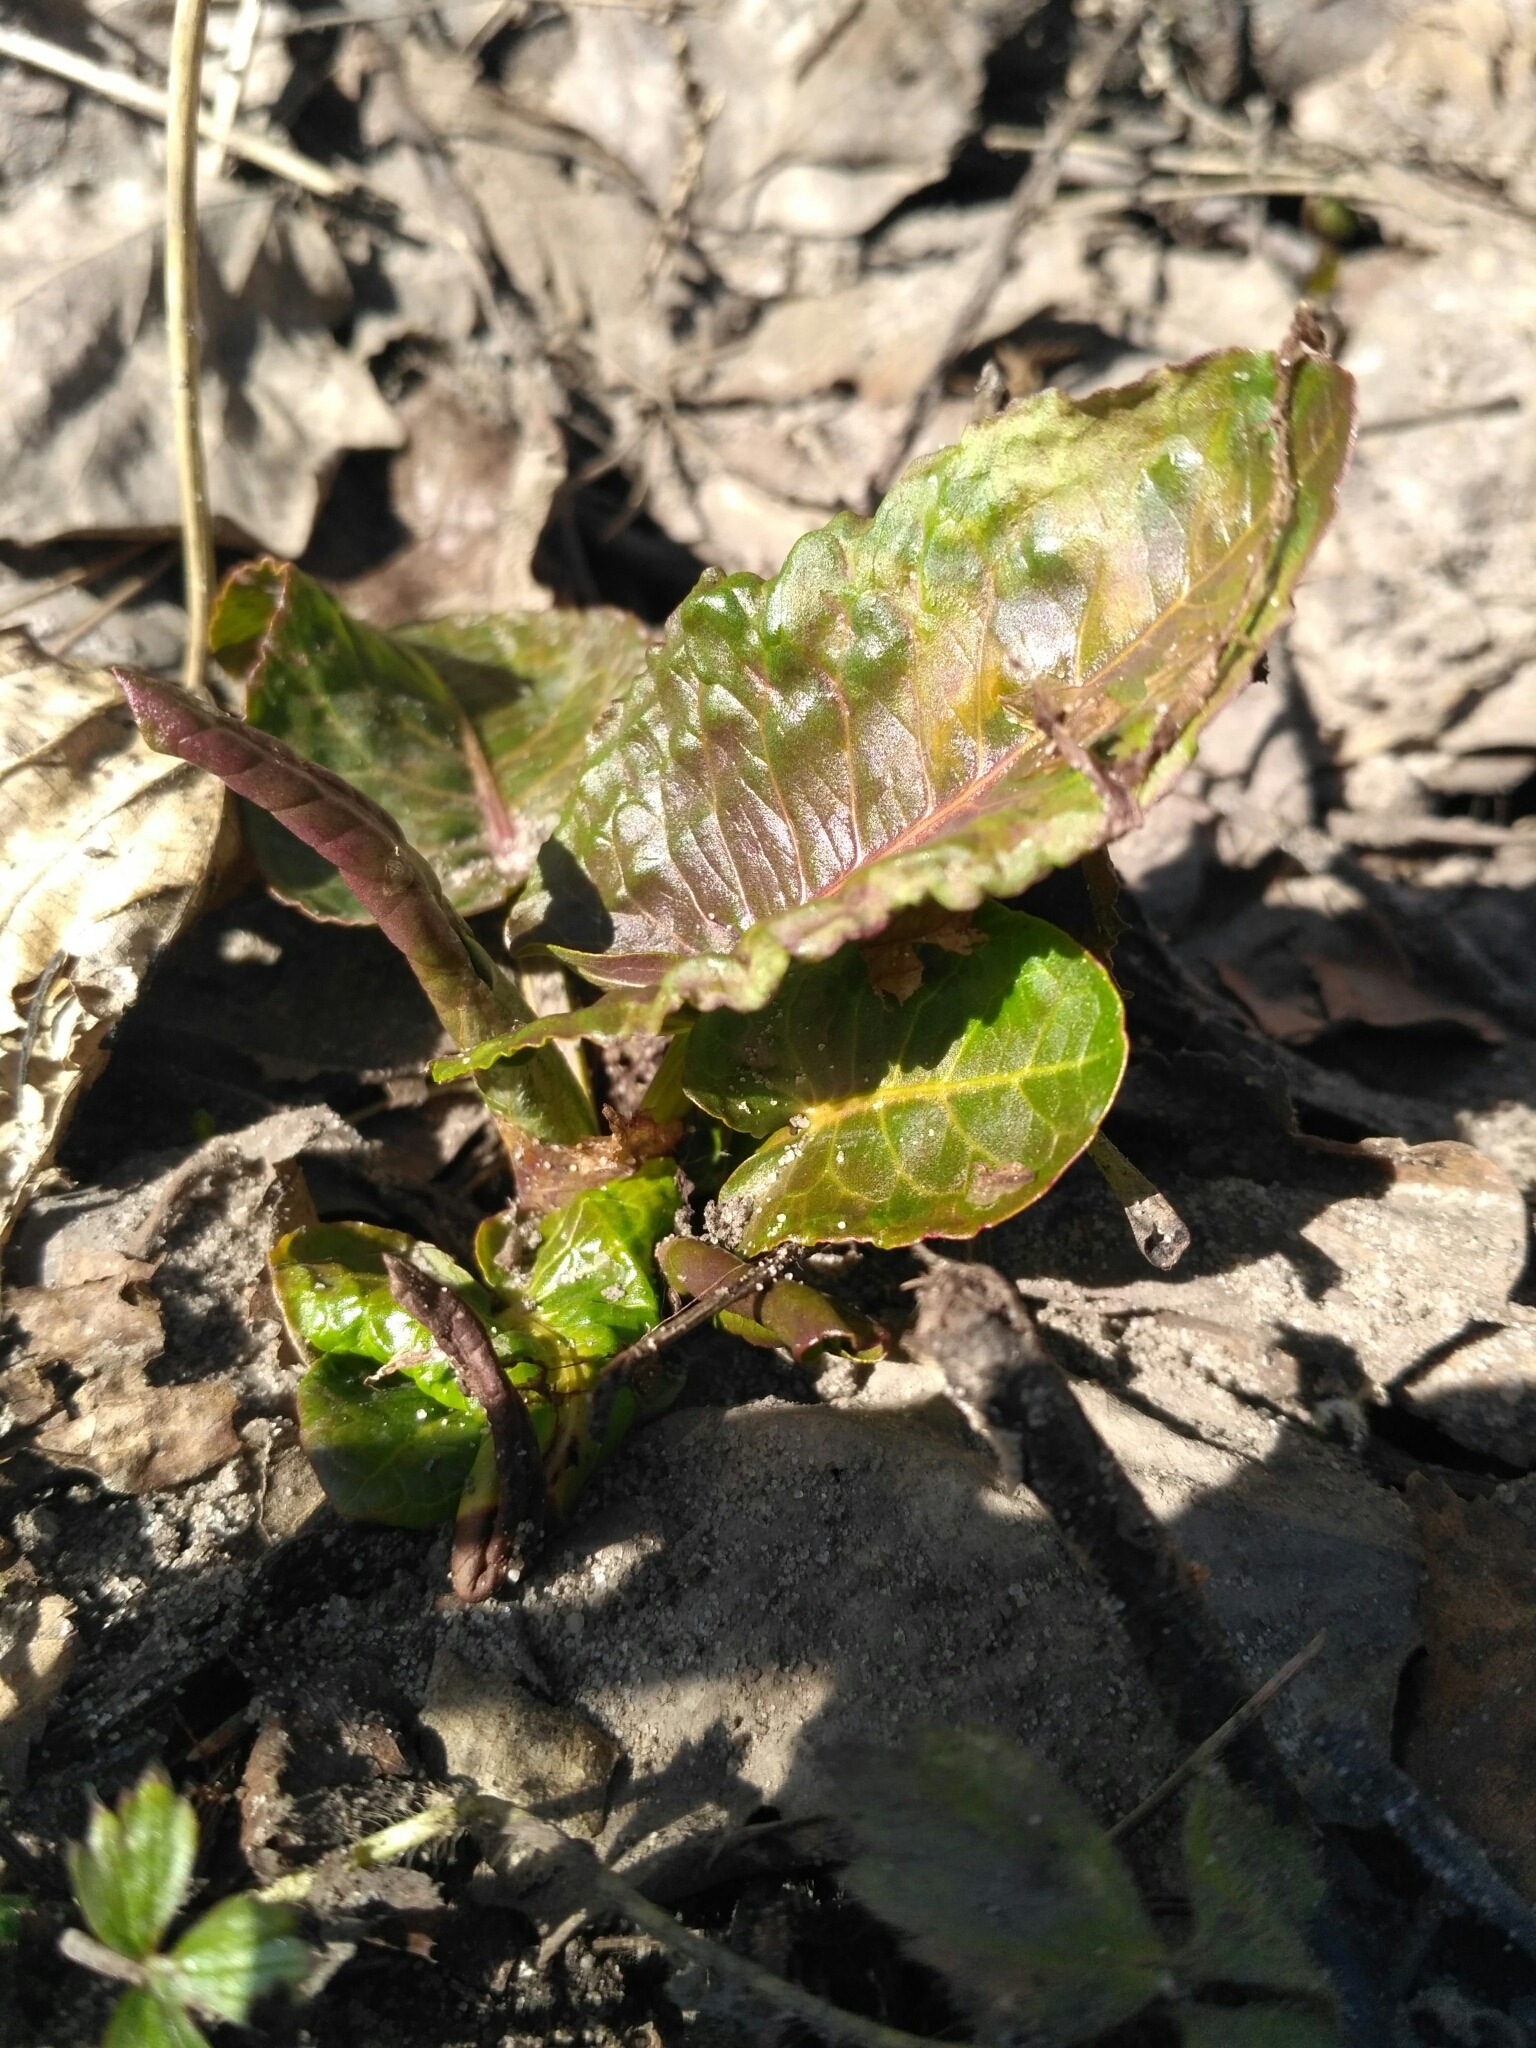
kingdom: Plantae
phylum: Tracheophyta
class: Magnoliopsida
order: Caryophyllales
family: Polygonaceae
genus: Rumex
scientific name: Rumex obtusifolius
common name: Bitter dock
